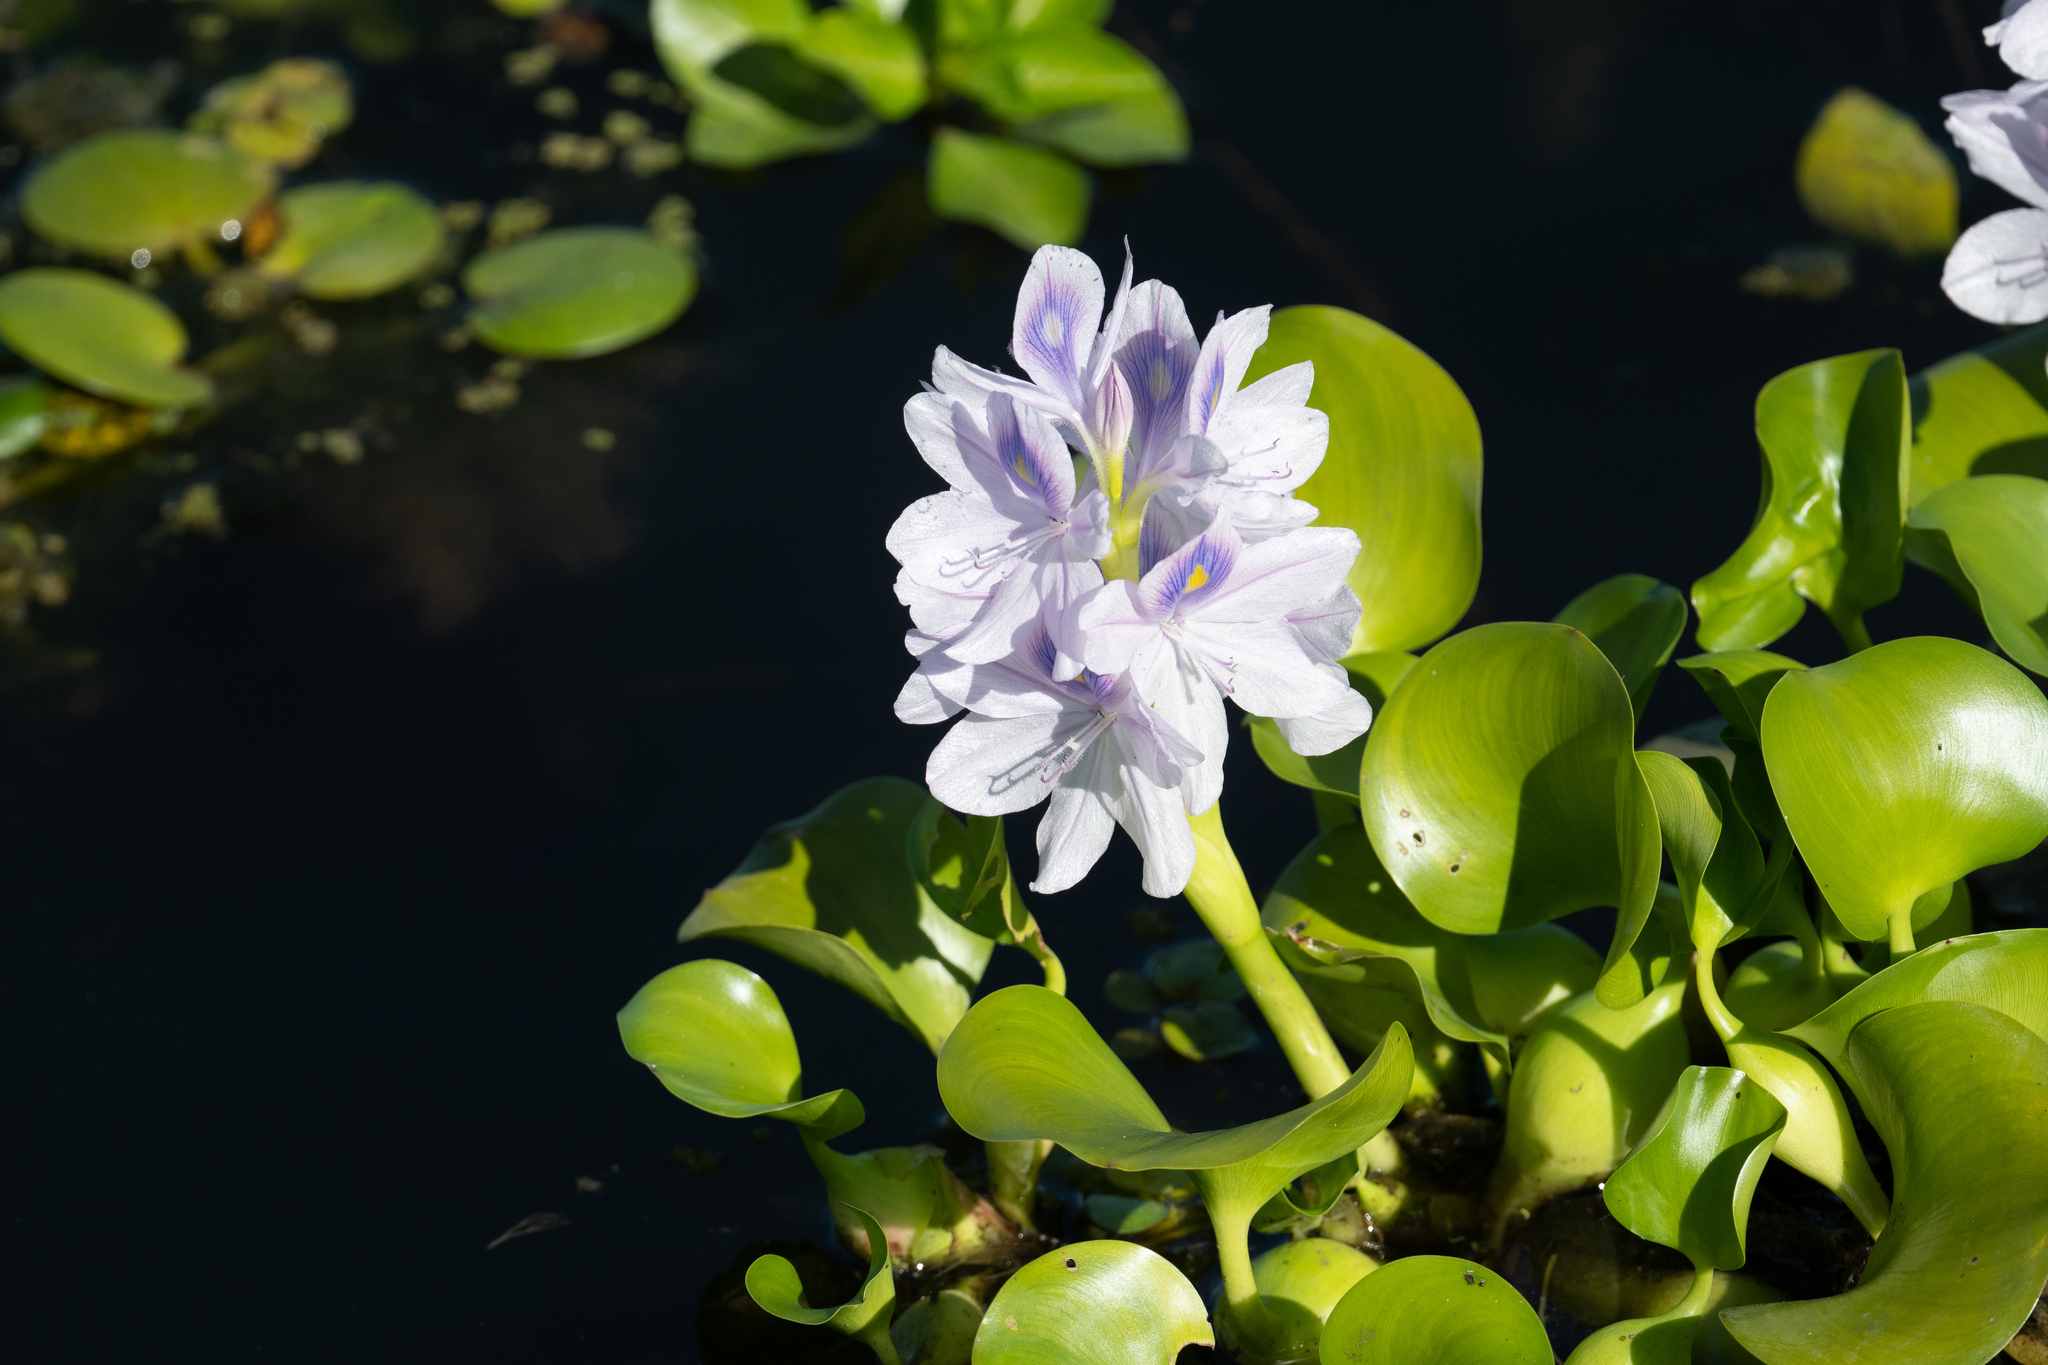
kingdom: Plantae
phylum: Tracheophyta
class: Liliopsida
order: Commelinales
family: Pontederiaceae
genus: Pontederia
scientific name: Pontederia crassipes
